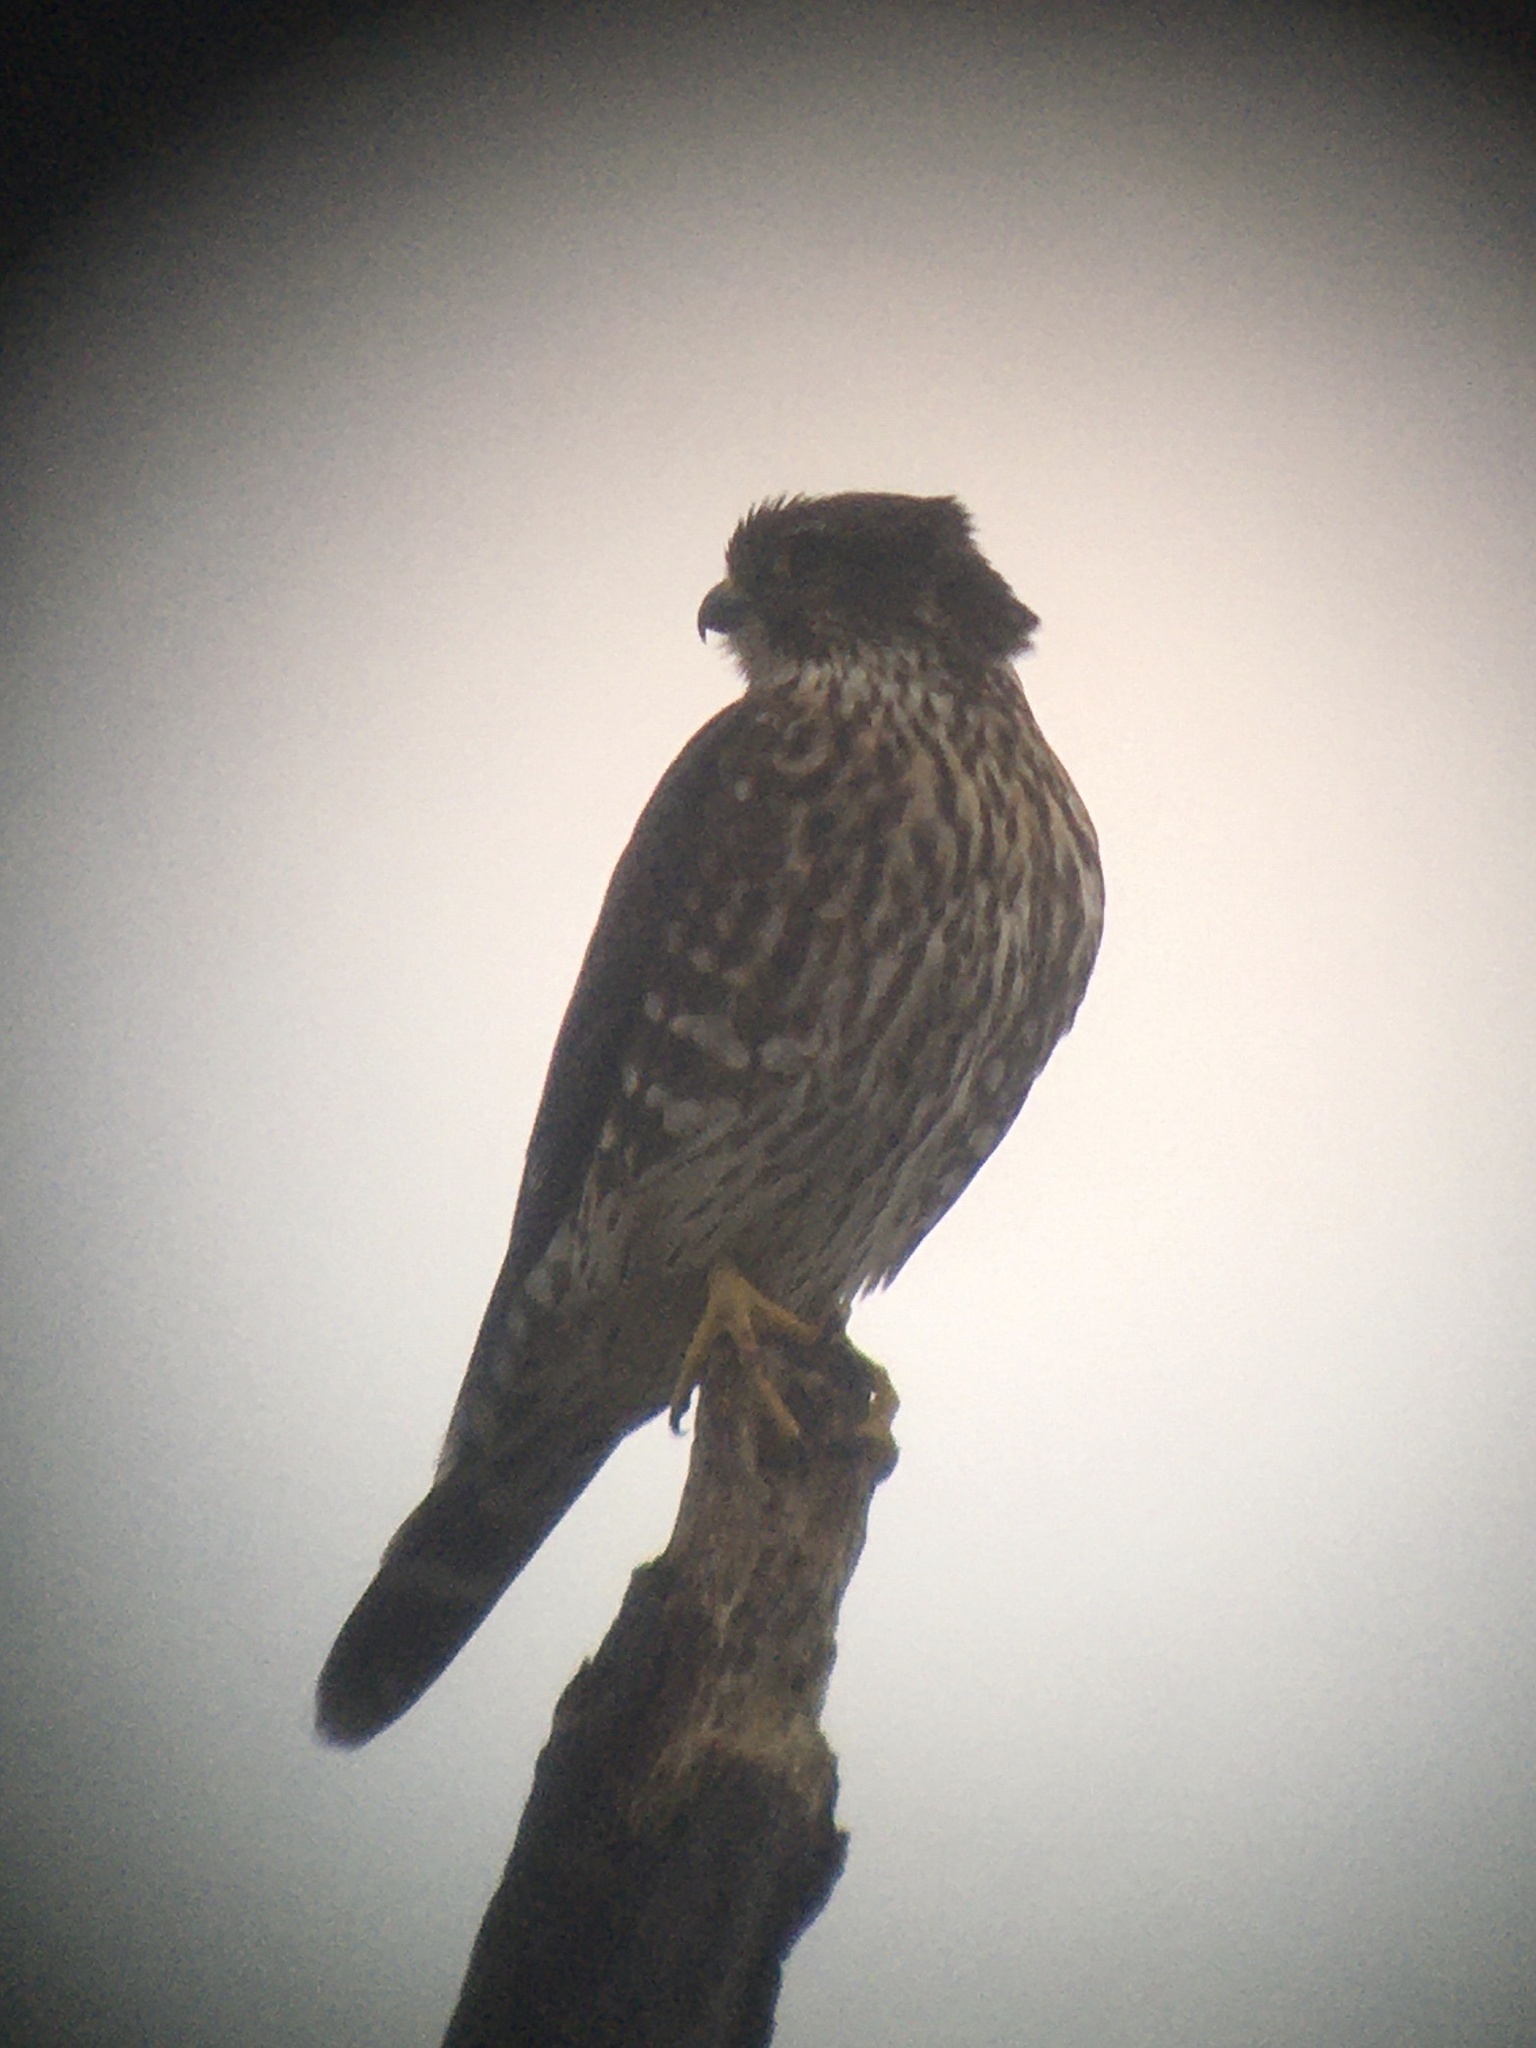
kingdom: Animalia
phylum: Chordata
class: Aves
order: Falconiformes
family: Falconidae
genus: Falco
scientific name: Falco columbarius
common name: Merlin
